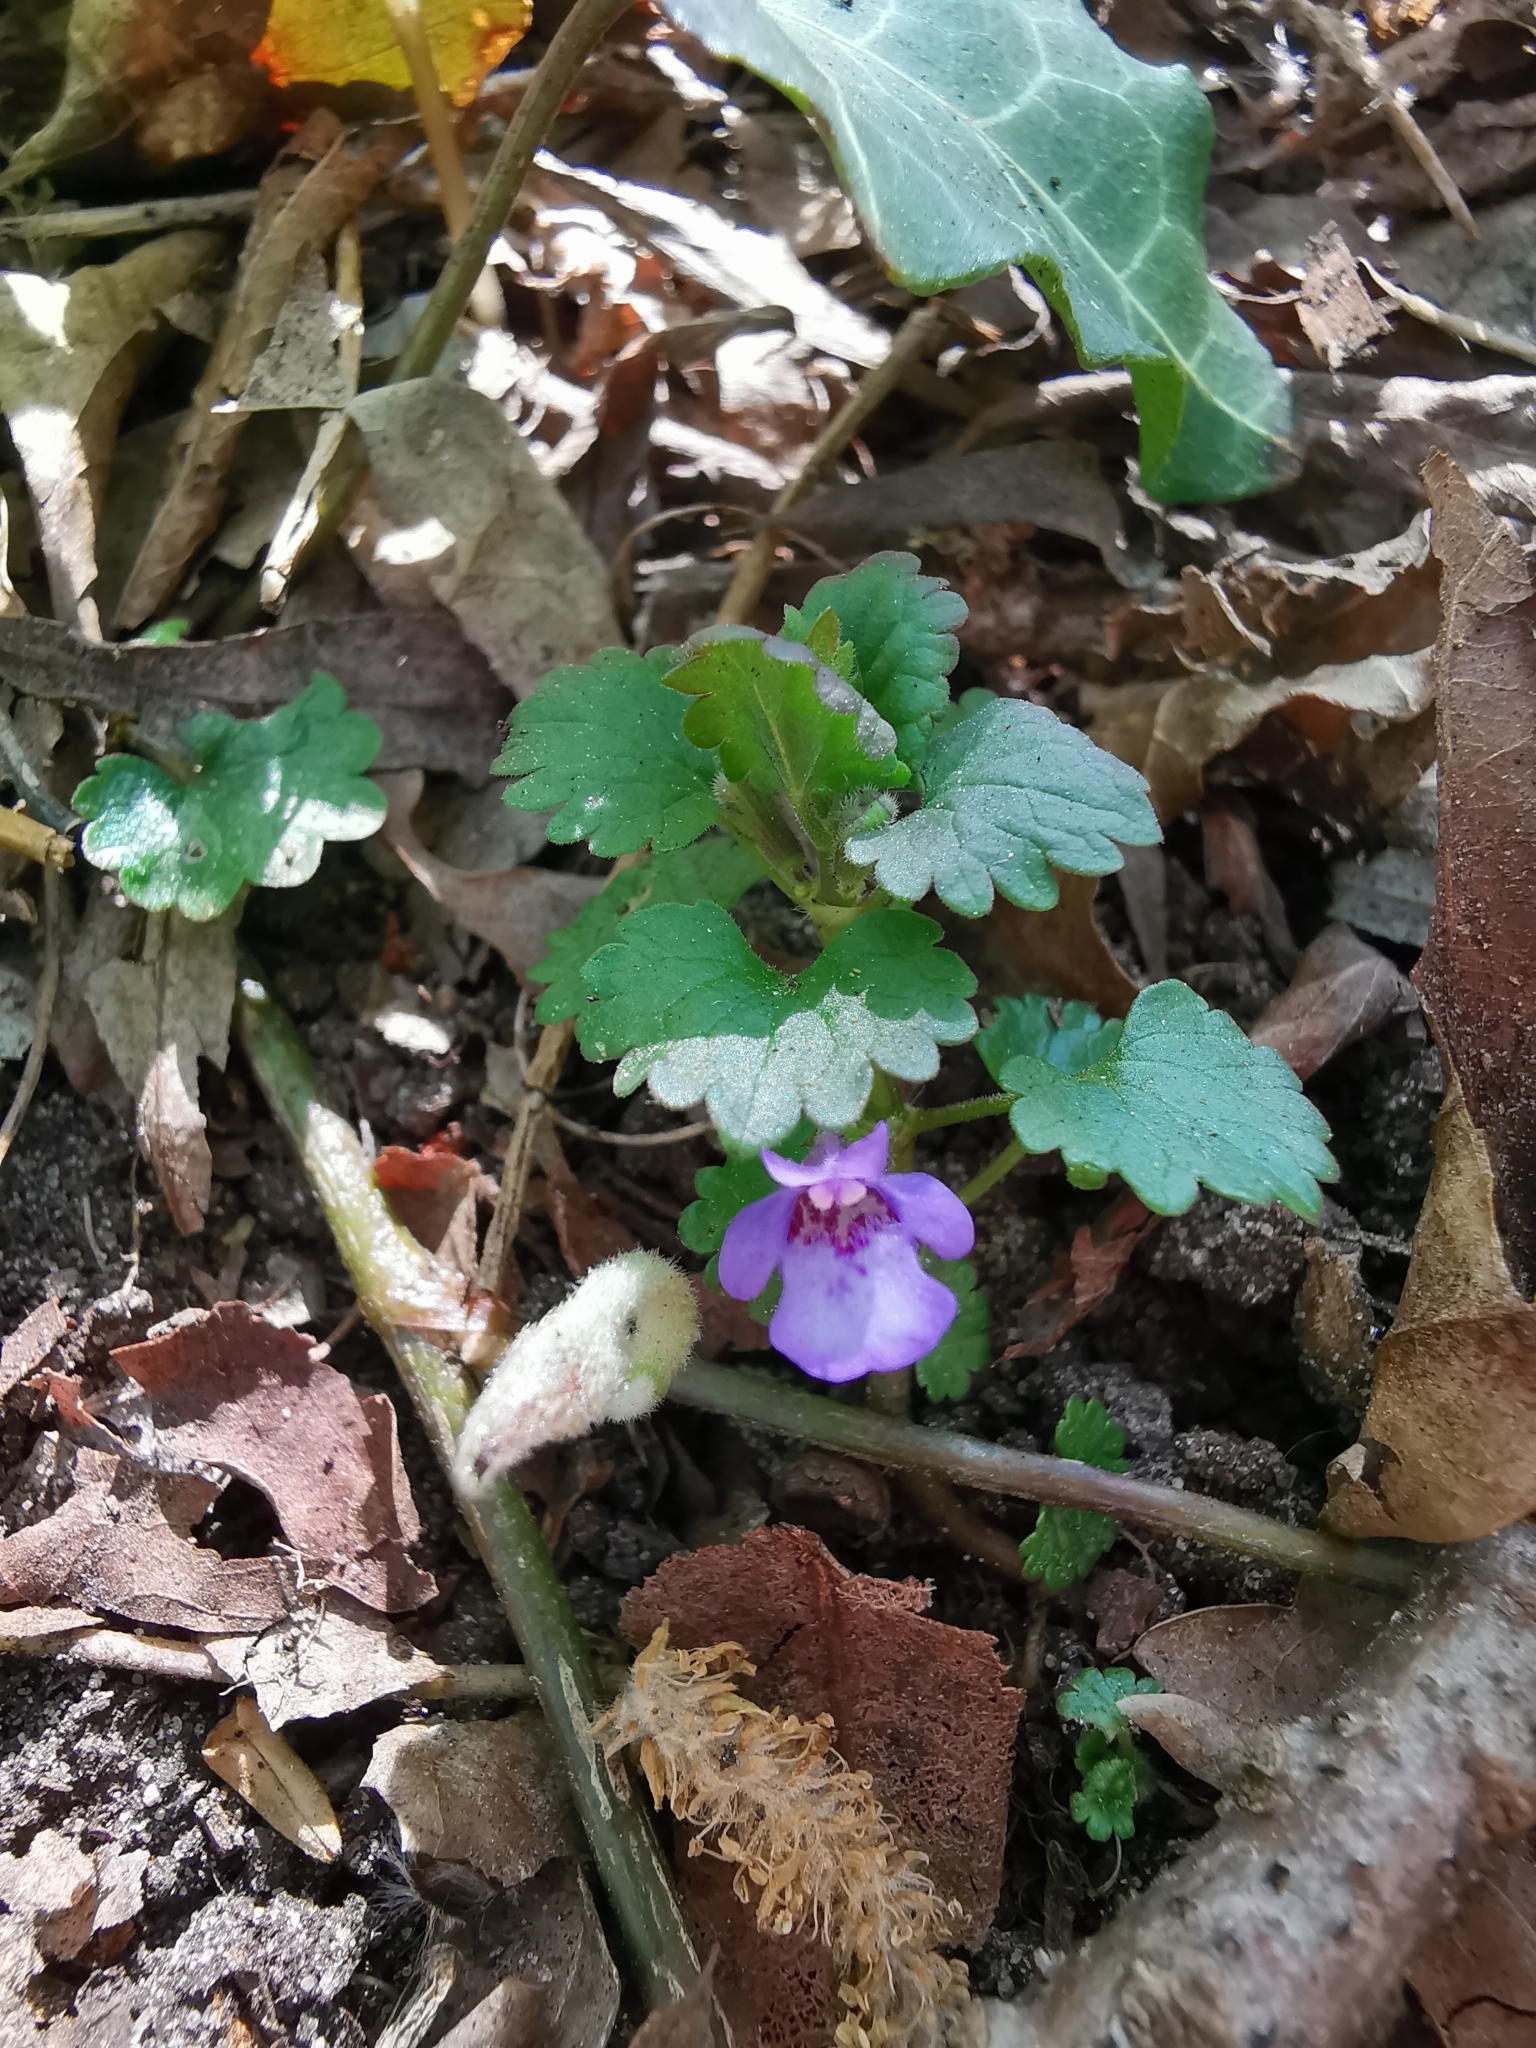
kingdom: Plantae
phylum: Tracheophyta
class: Magnoliopsida
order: Lamiales
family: Lamiaceae
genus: Glechoma
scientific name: Glechoma hederacea
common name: Ground ivy
